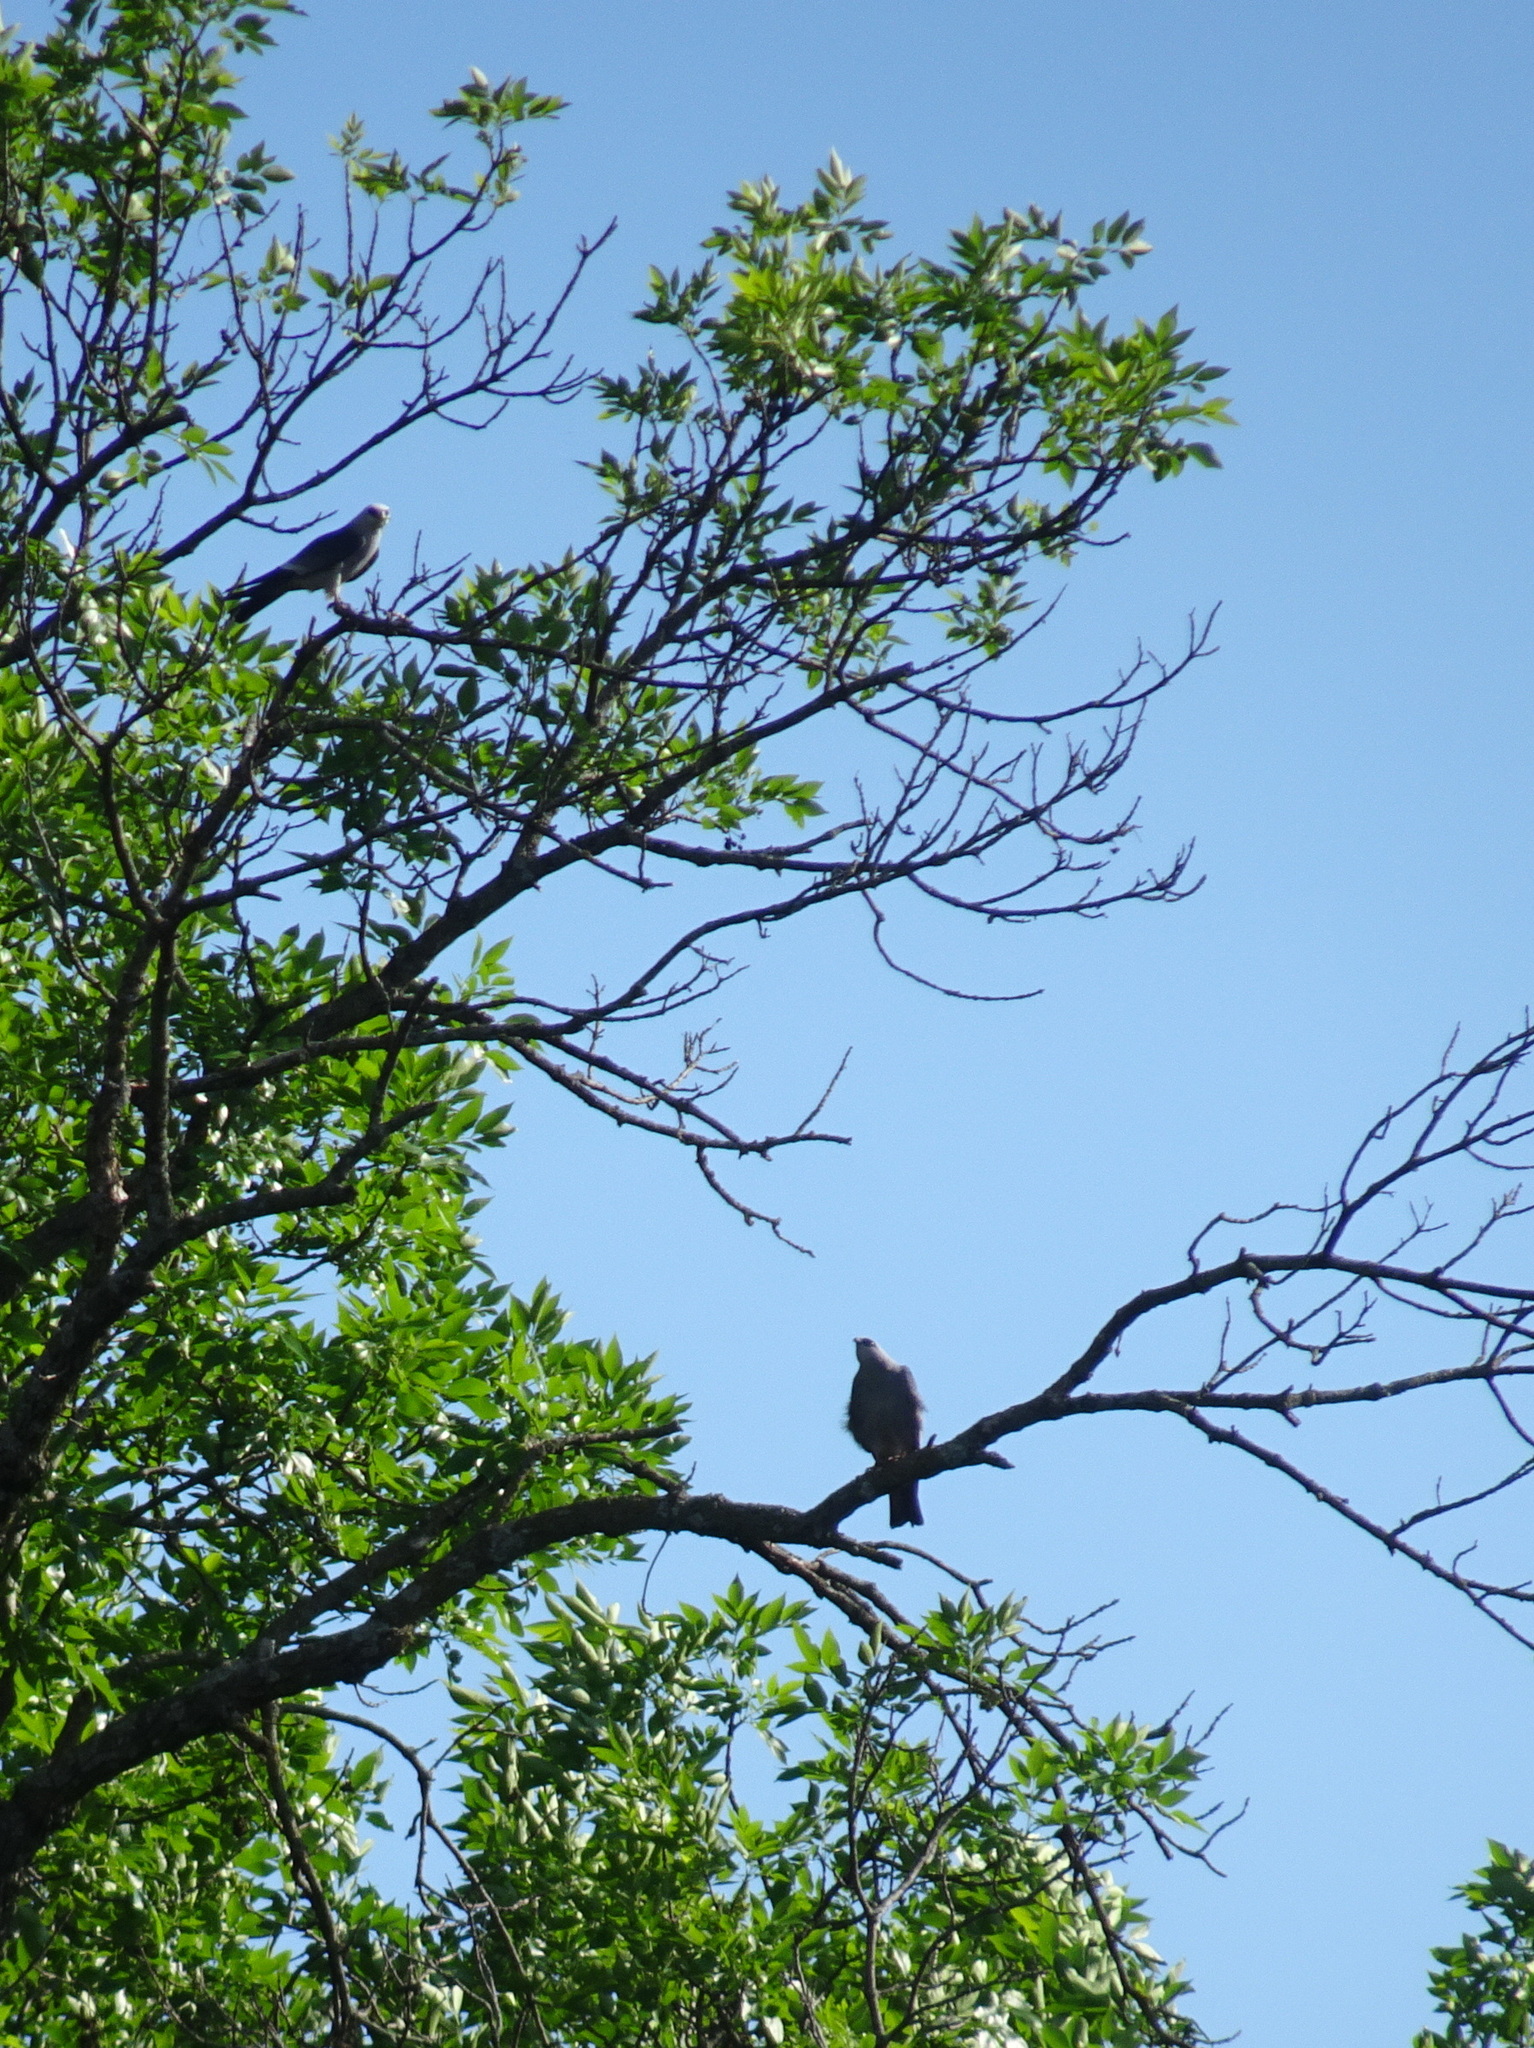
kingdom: Animalia
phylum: Chordata
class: Aves
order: Accipitriformes
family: Accipitridae
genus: Ictinia
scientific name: Ictinia mississippiensis
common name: Mississippi kite
